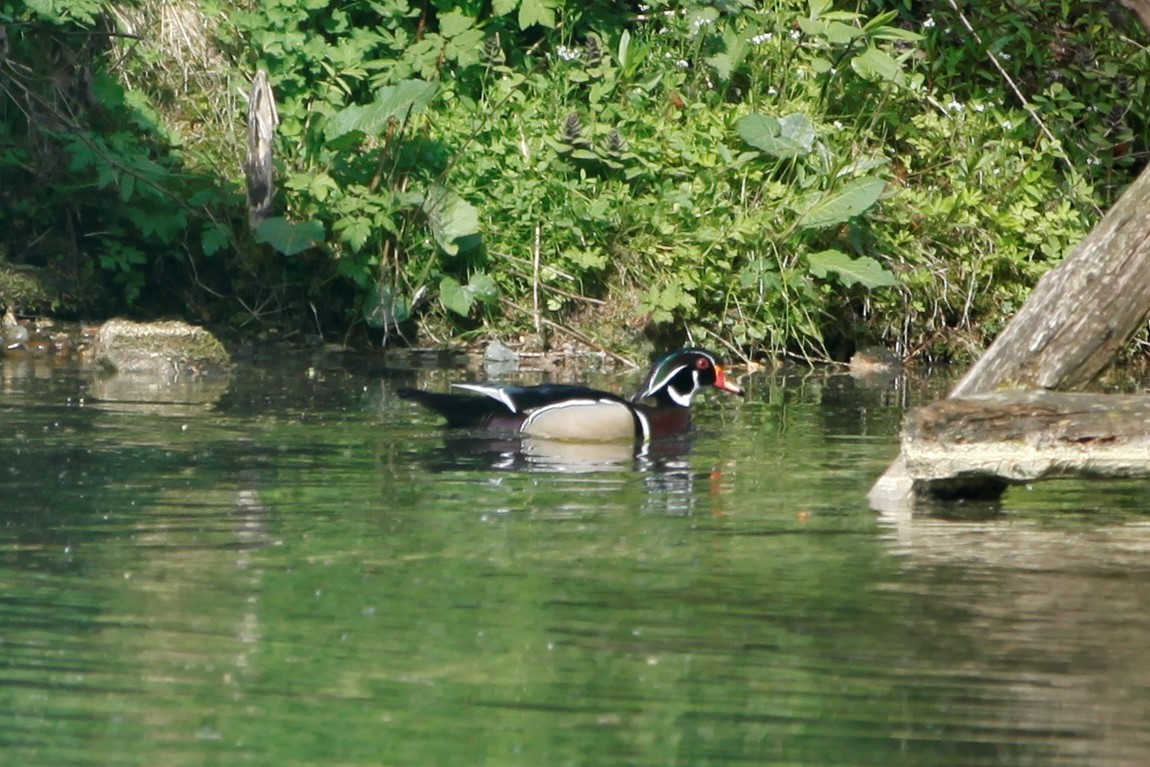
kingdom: Animalia
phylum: Chordata
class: Aves
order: Anseriformes
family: Anatidae
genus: Aix
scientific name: Aix sponsa
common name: Wood duck
